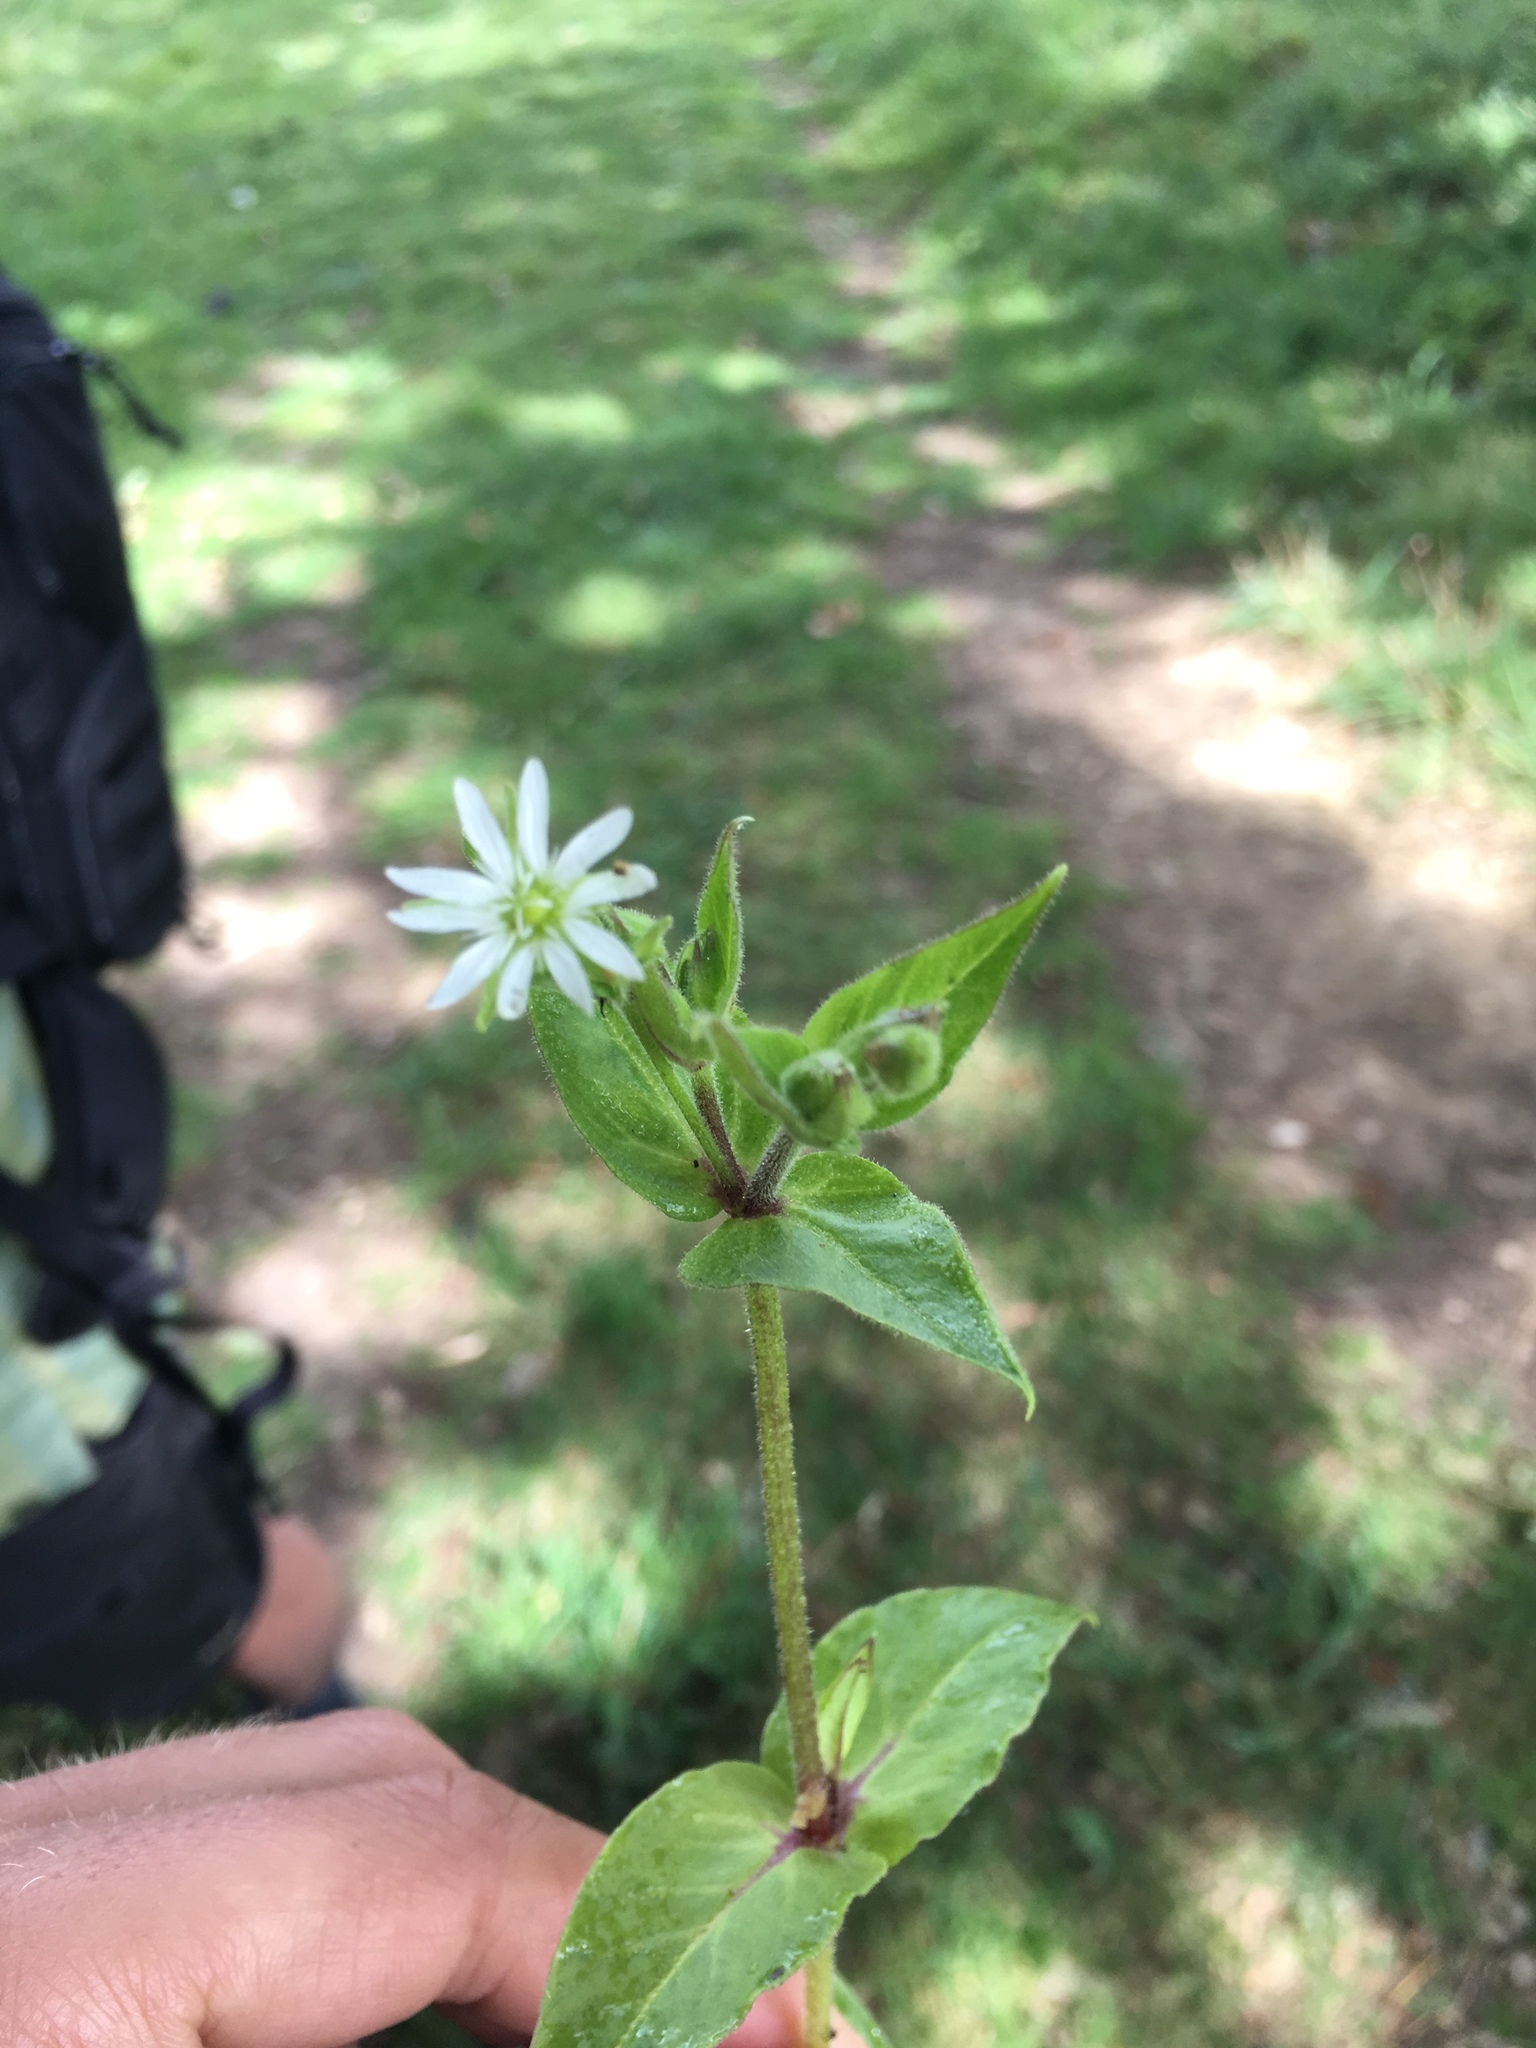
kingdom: Plantae
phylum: Tracheophyta
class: Magnoliopsida
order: Caryophyllales
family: Caryophyllaceae
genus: Stellaria
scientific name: Stellaria aquatica
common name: Water chickweed
